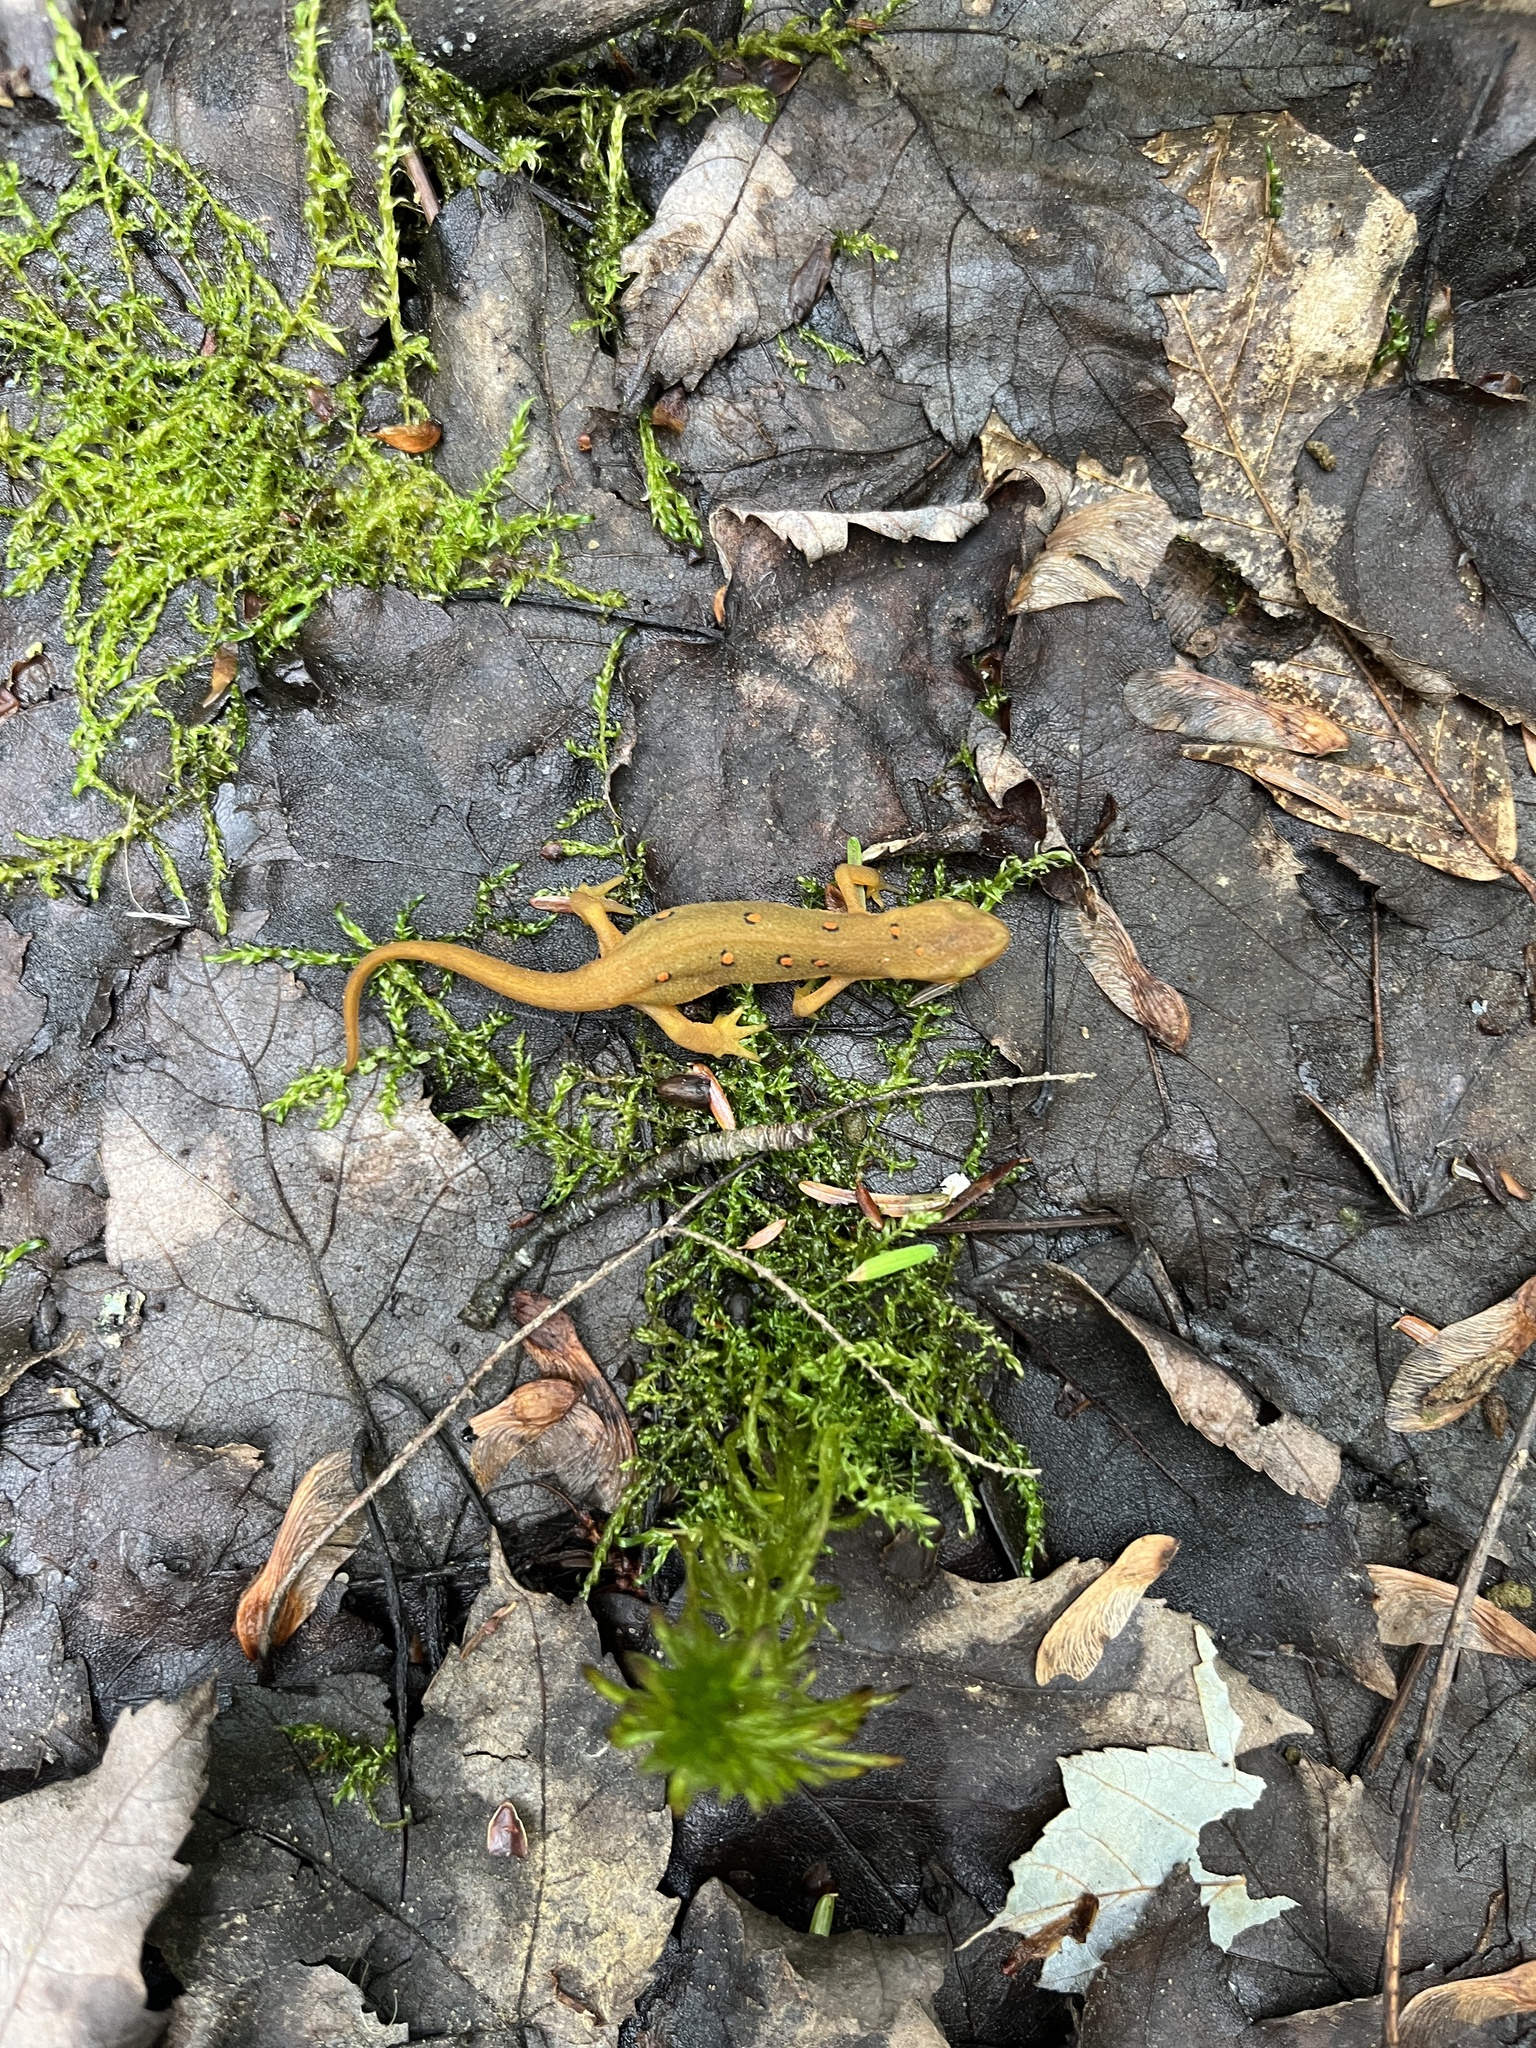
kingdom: Animalia
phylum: Chordata
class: Amphibia
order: Caudata
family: Salamandridae
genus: Notophthalmus
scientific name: Notophthalmus viridescens
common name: Eastern newt
